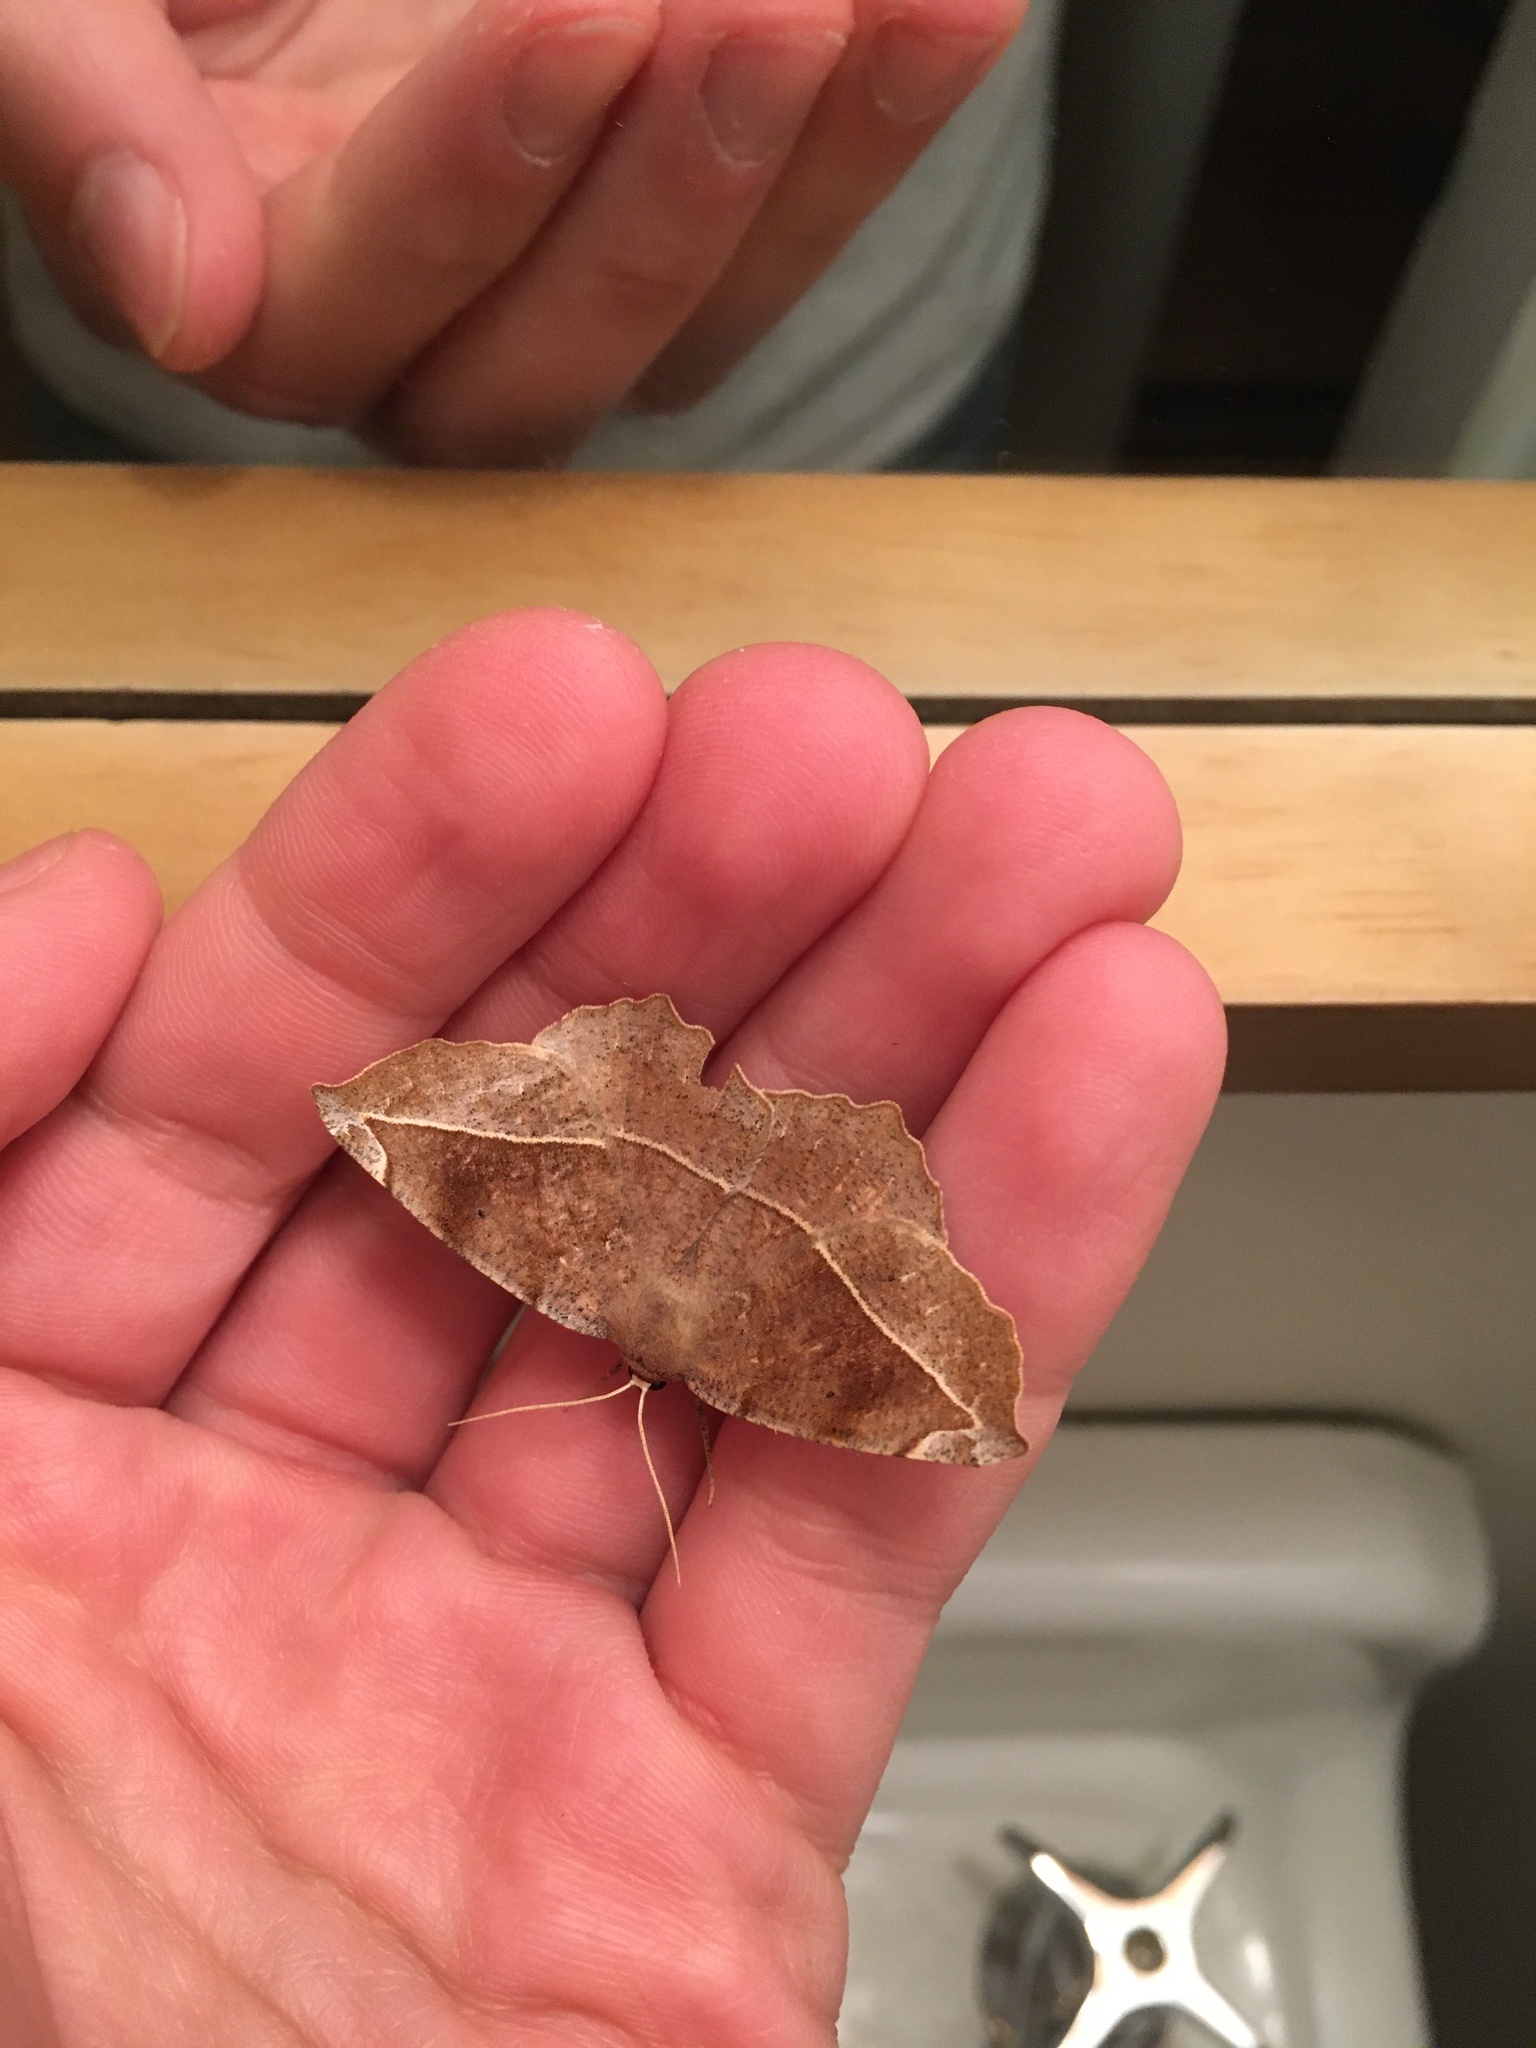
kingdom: Animalia
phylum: Arthropoda
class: Insecta
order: Lepidoptera
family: Geometridae
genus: Eutrapela
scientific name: Eutrapela clemataria
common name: Curved-toothed geometer
